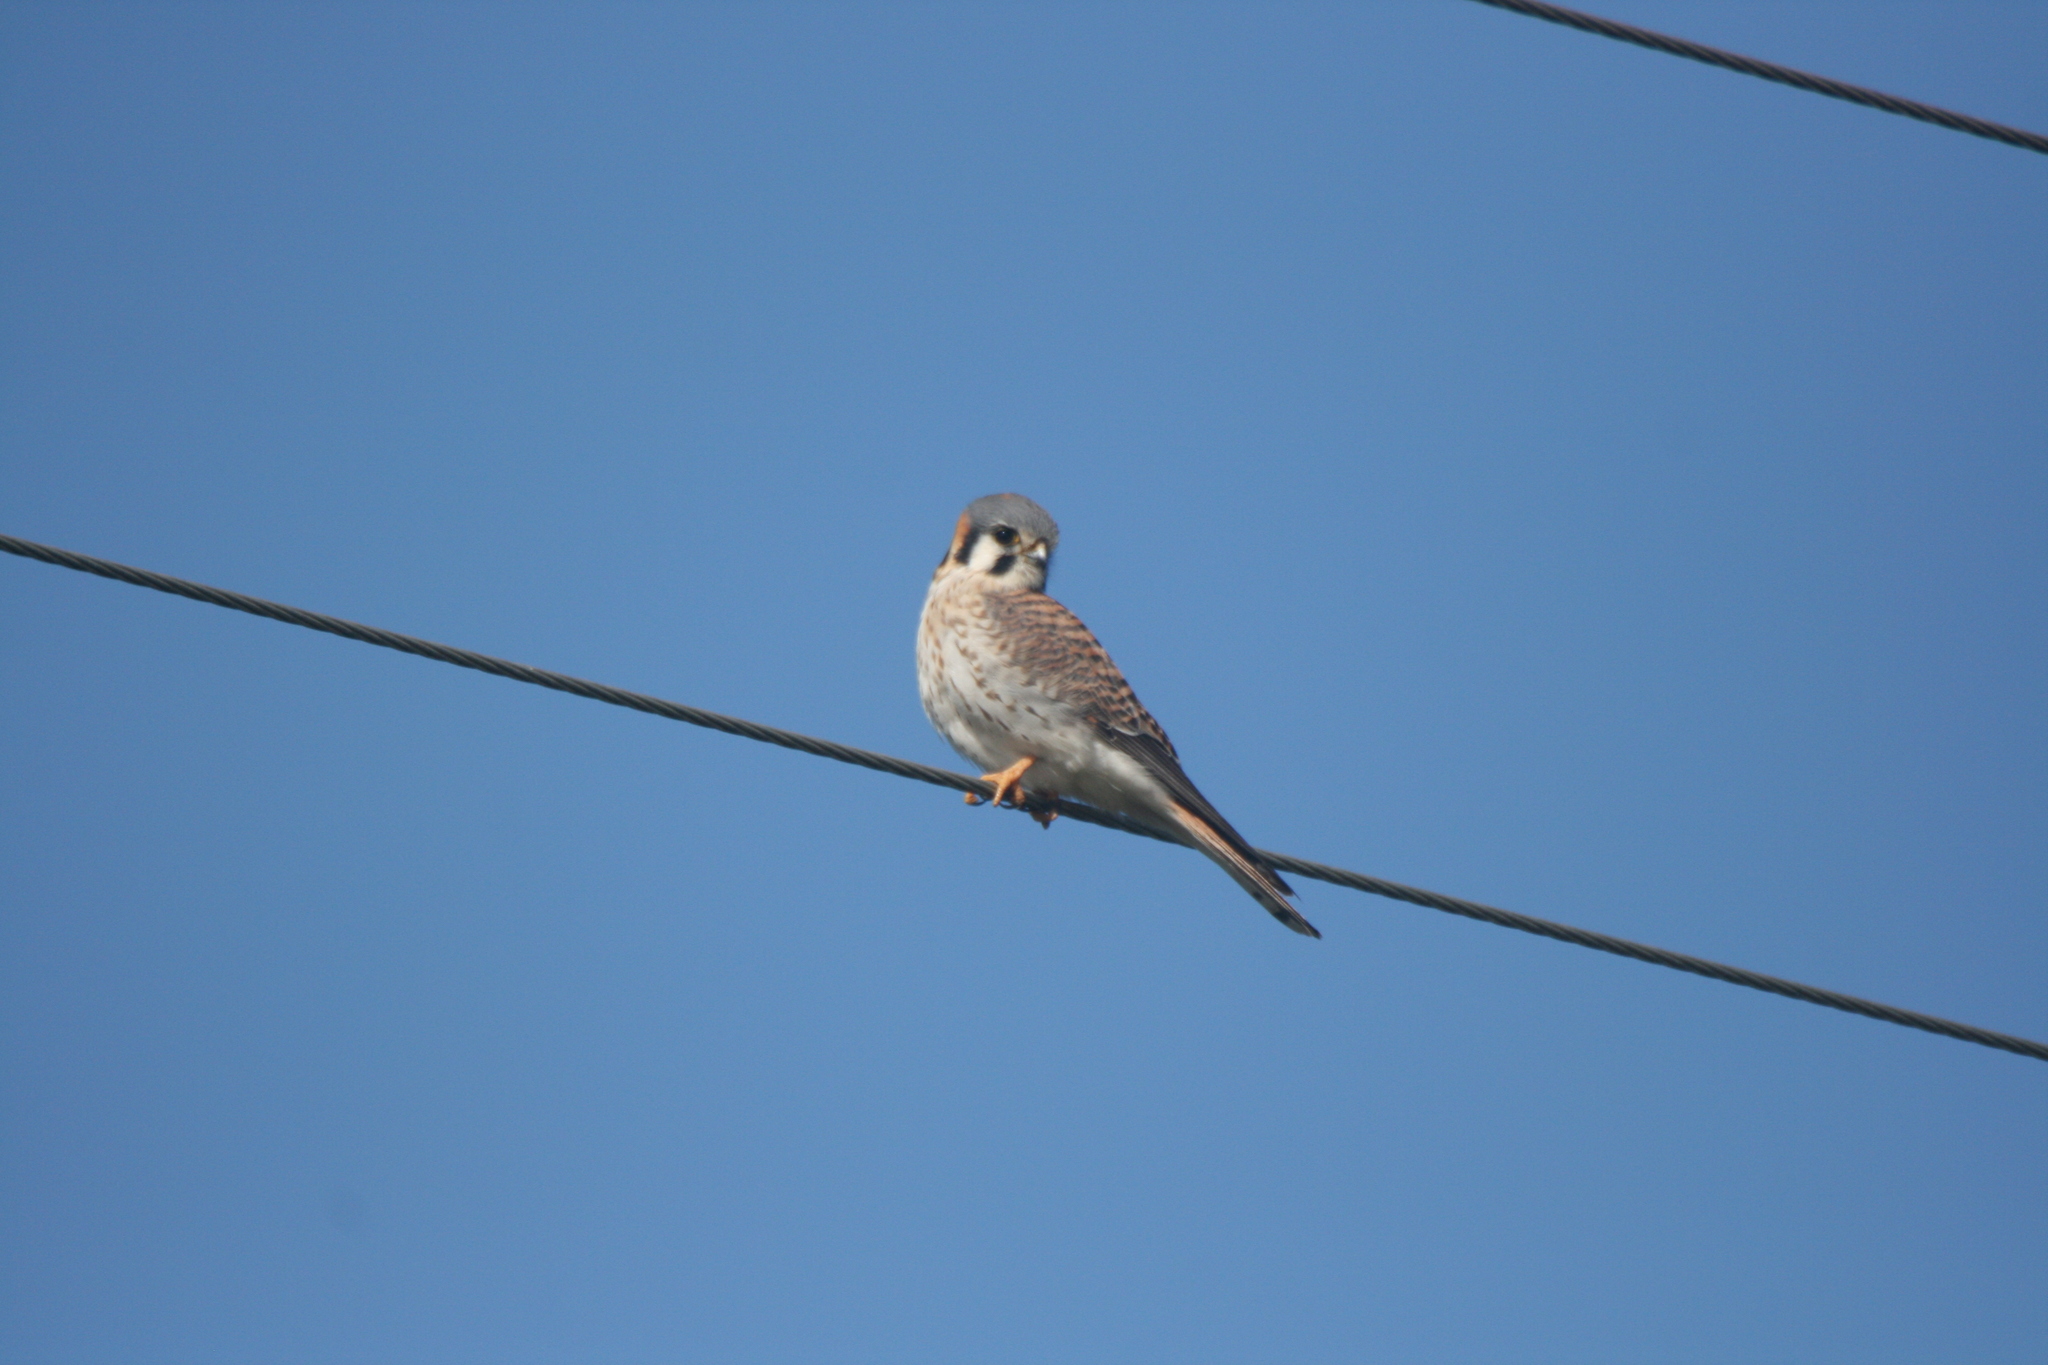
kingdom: Animalia
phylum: Chordata
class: Aves
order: Falconiformes
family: Falconidae
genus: Falco
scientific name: Falco sparverius
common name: American kestrel
